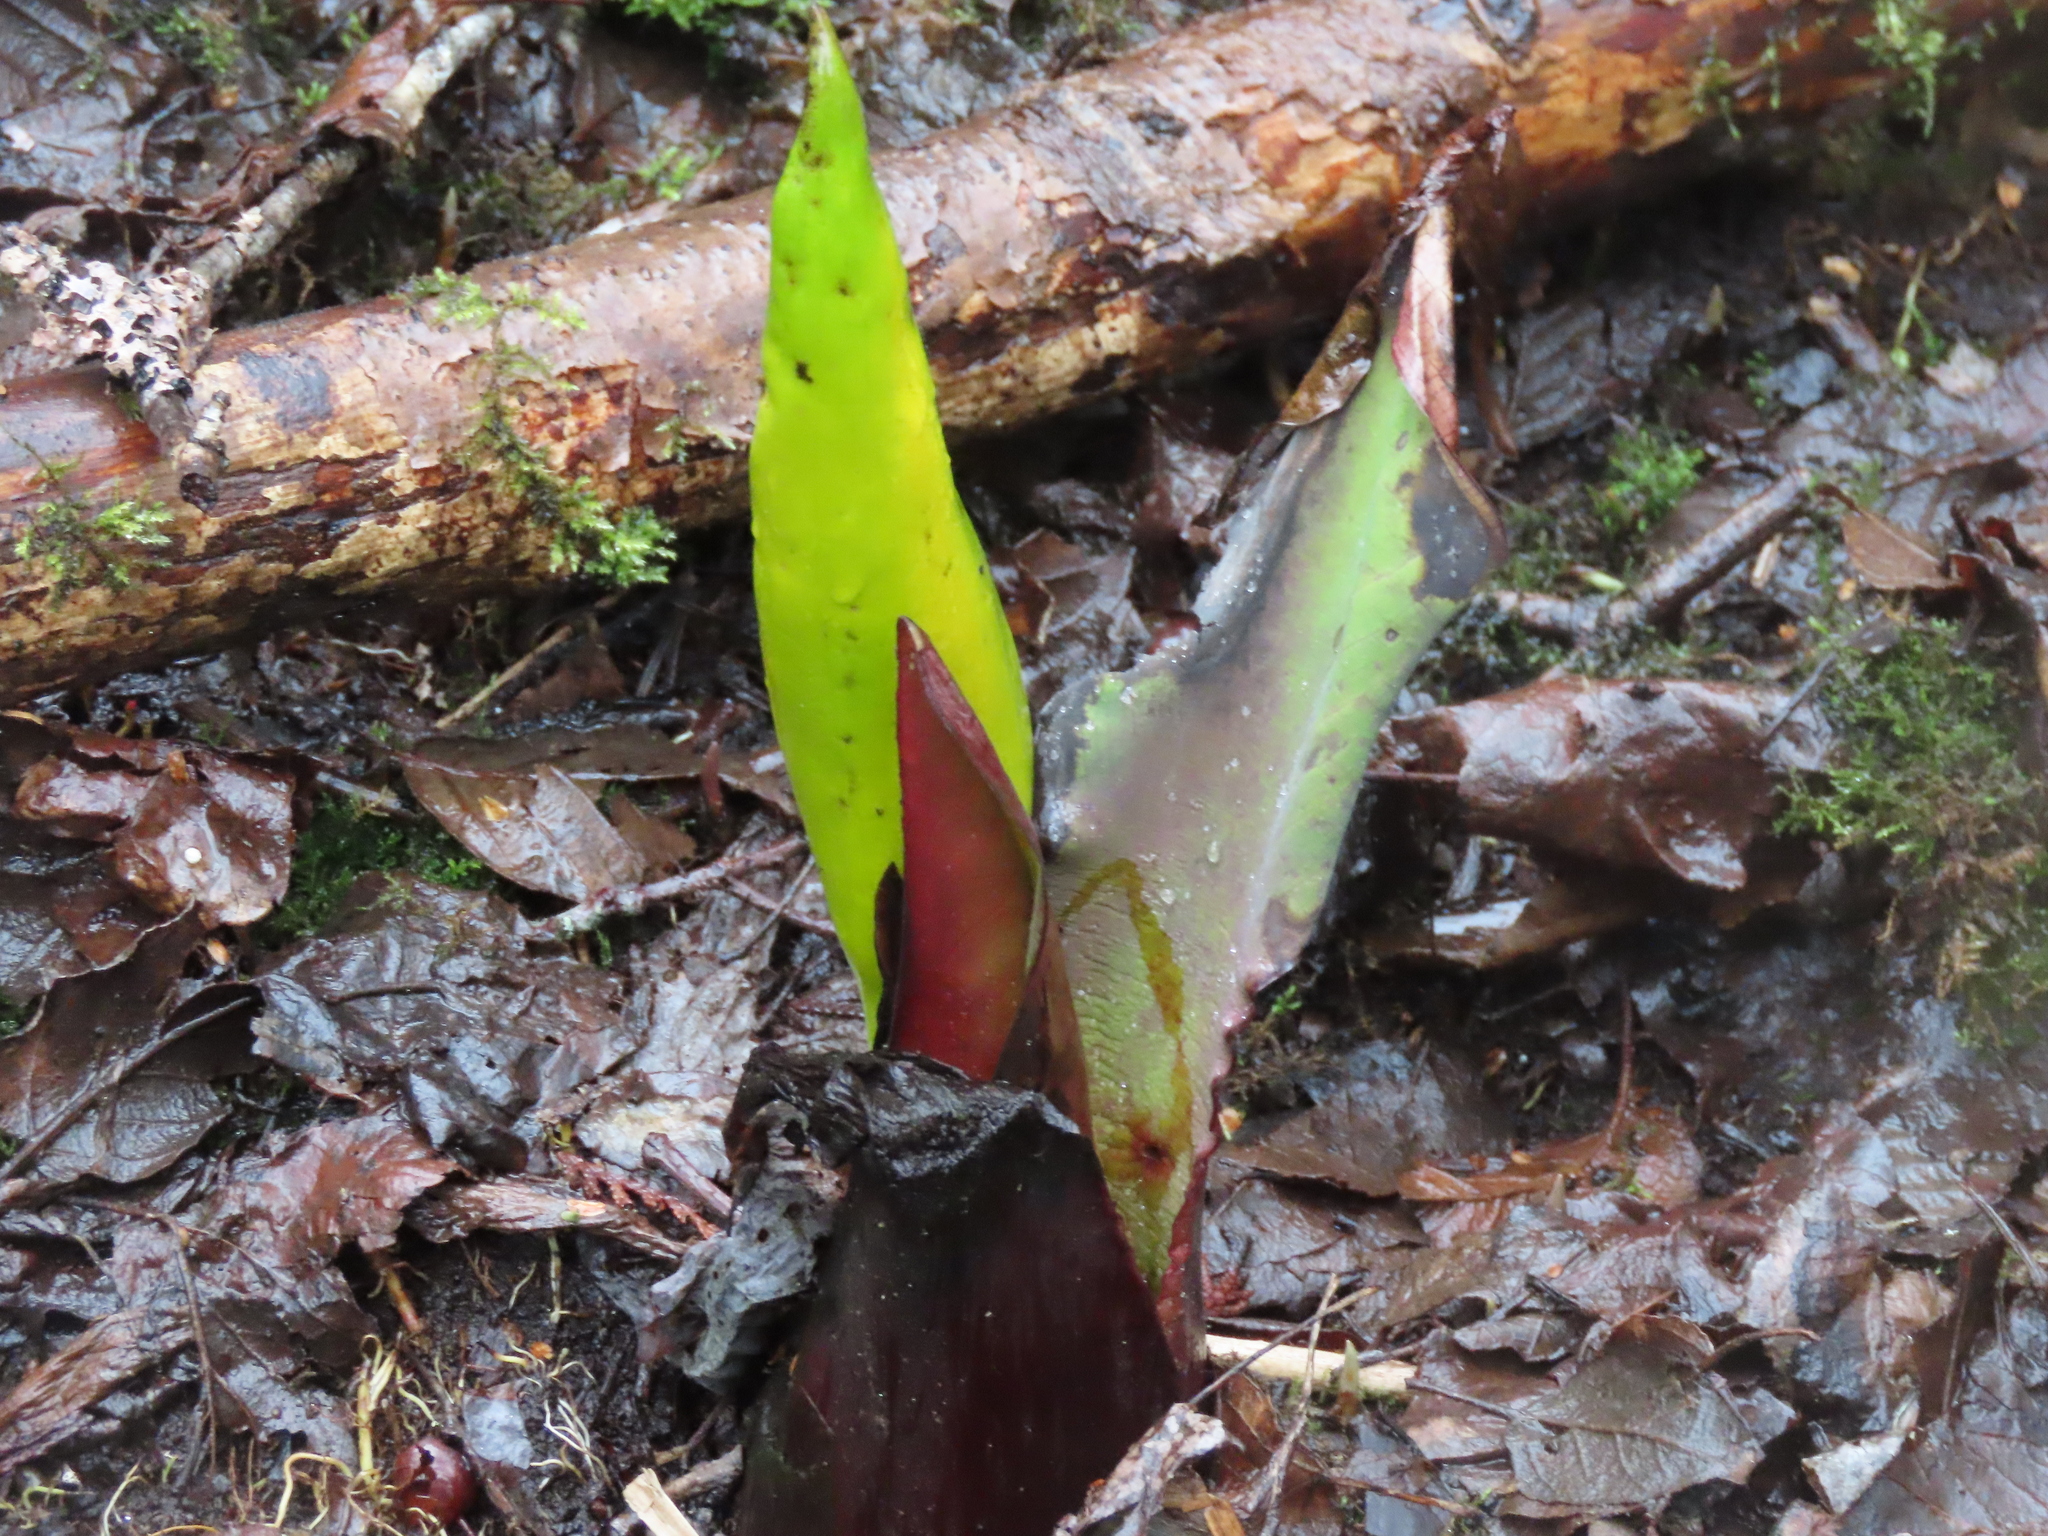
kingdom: Plantae
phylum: Tracheophyta
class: Liliopsida
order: Alismatales
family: Araceae
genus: Lysichiton
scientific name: Lysichiton americanus
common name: American skunk cabbage
